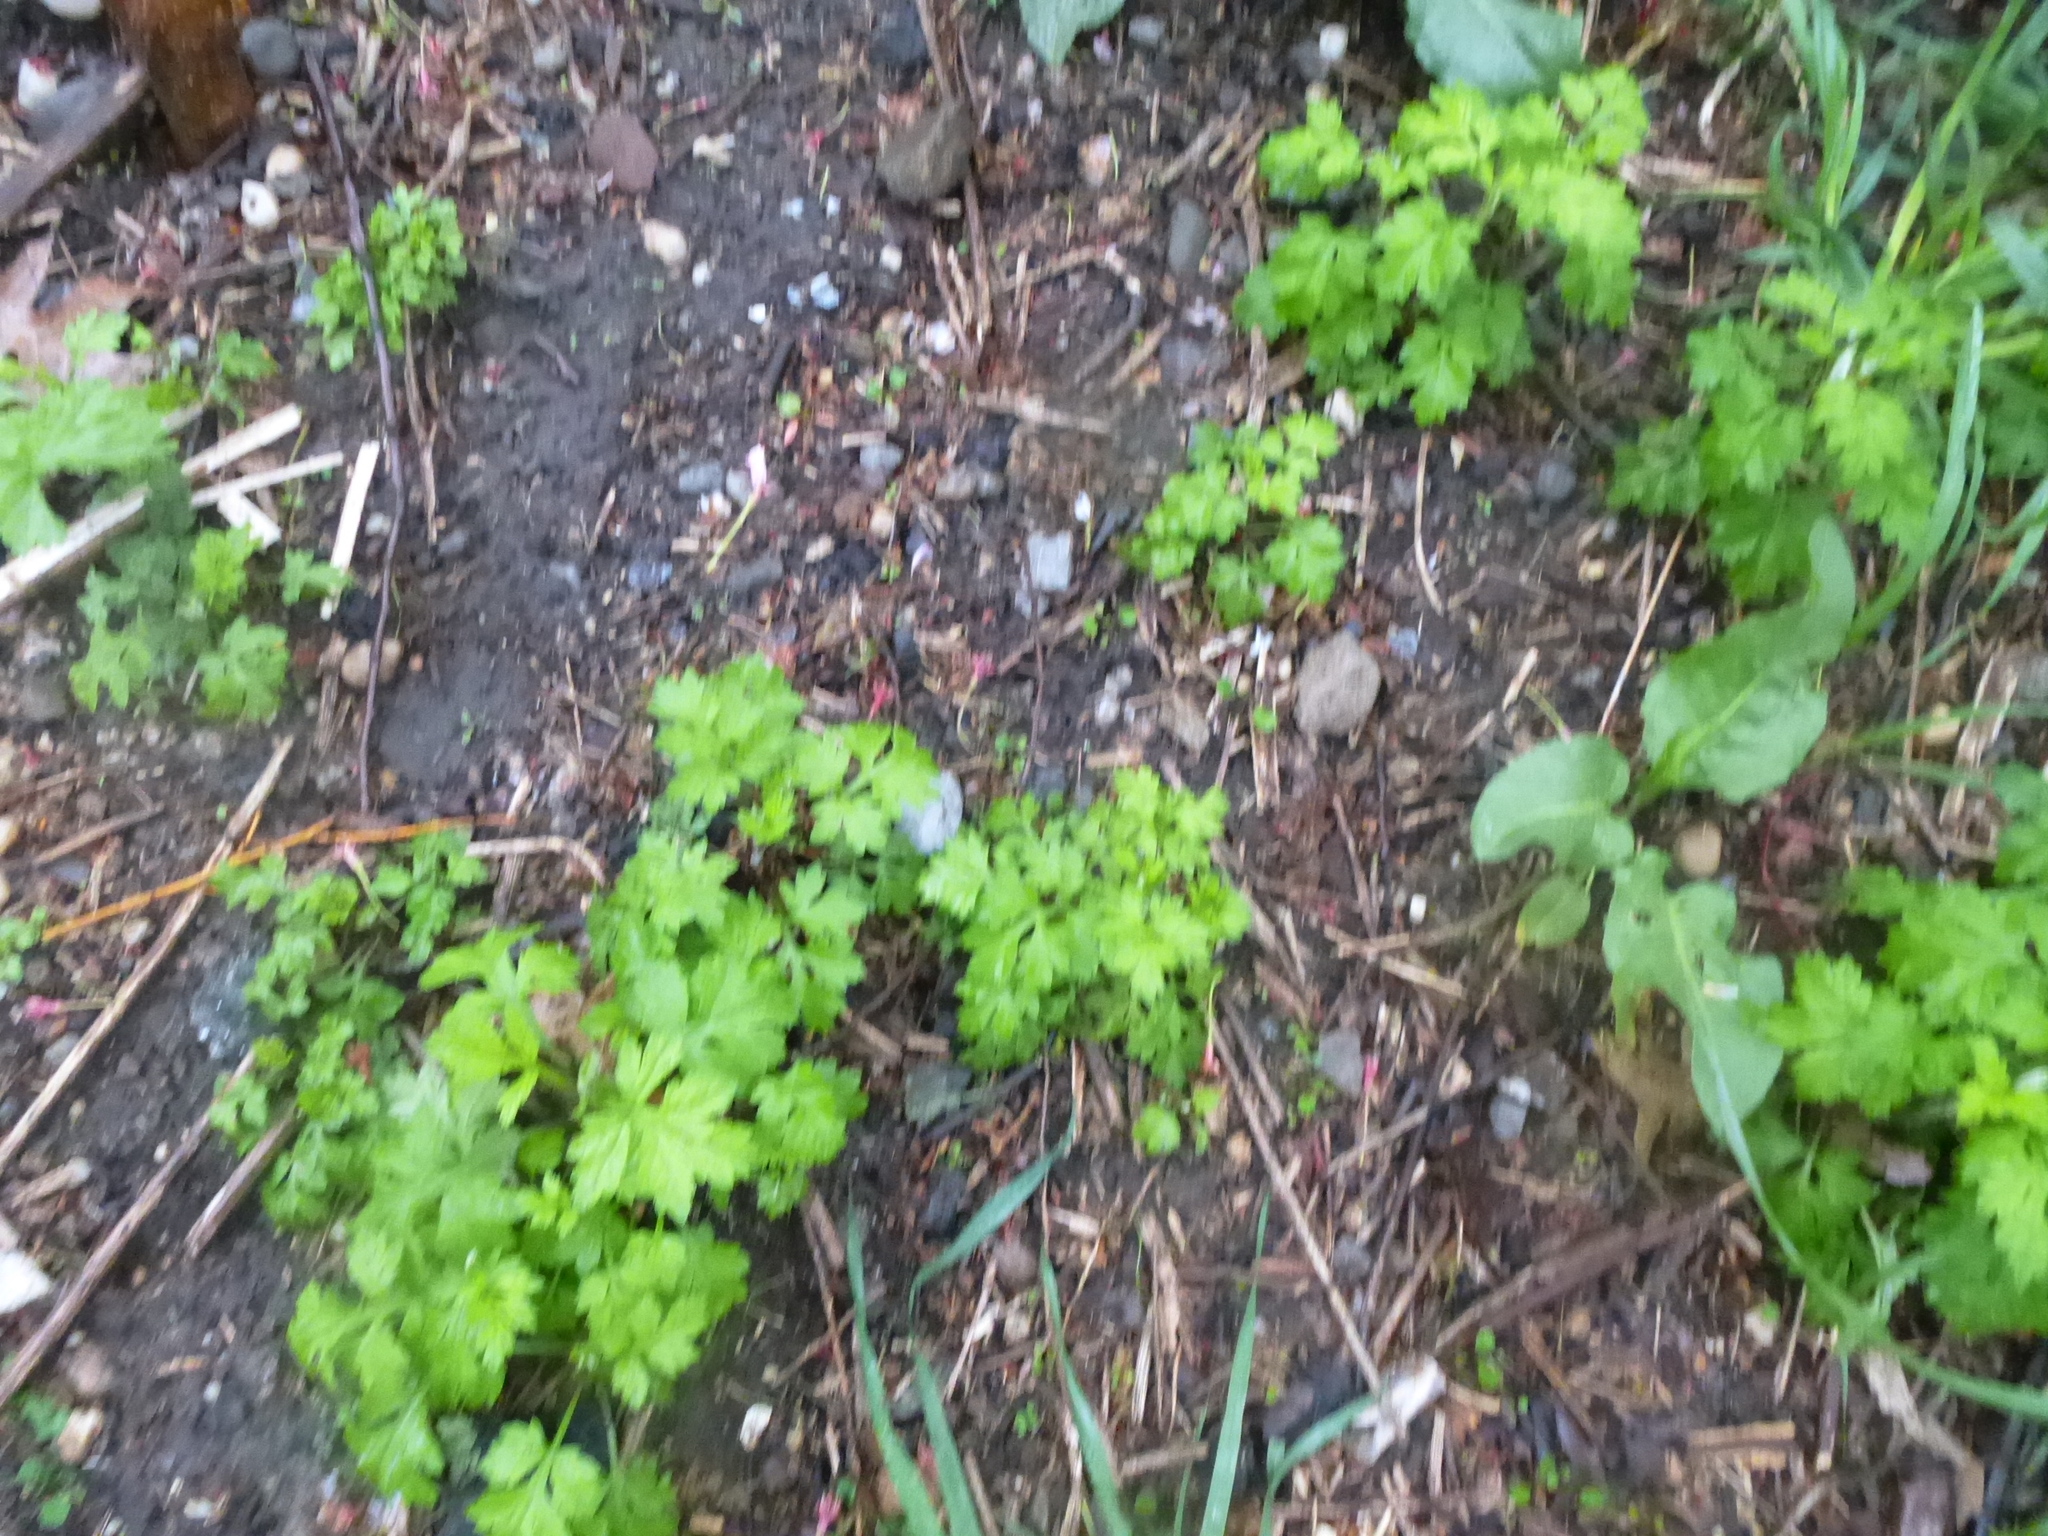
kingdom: Plantae
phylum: Tracheophyta
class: Magnoliopsida
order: Asterales
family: Asteraceae
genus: Artemisia
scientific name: Artemisia vulgaris
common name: Mugwort
